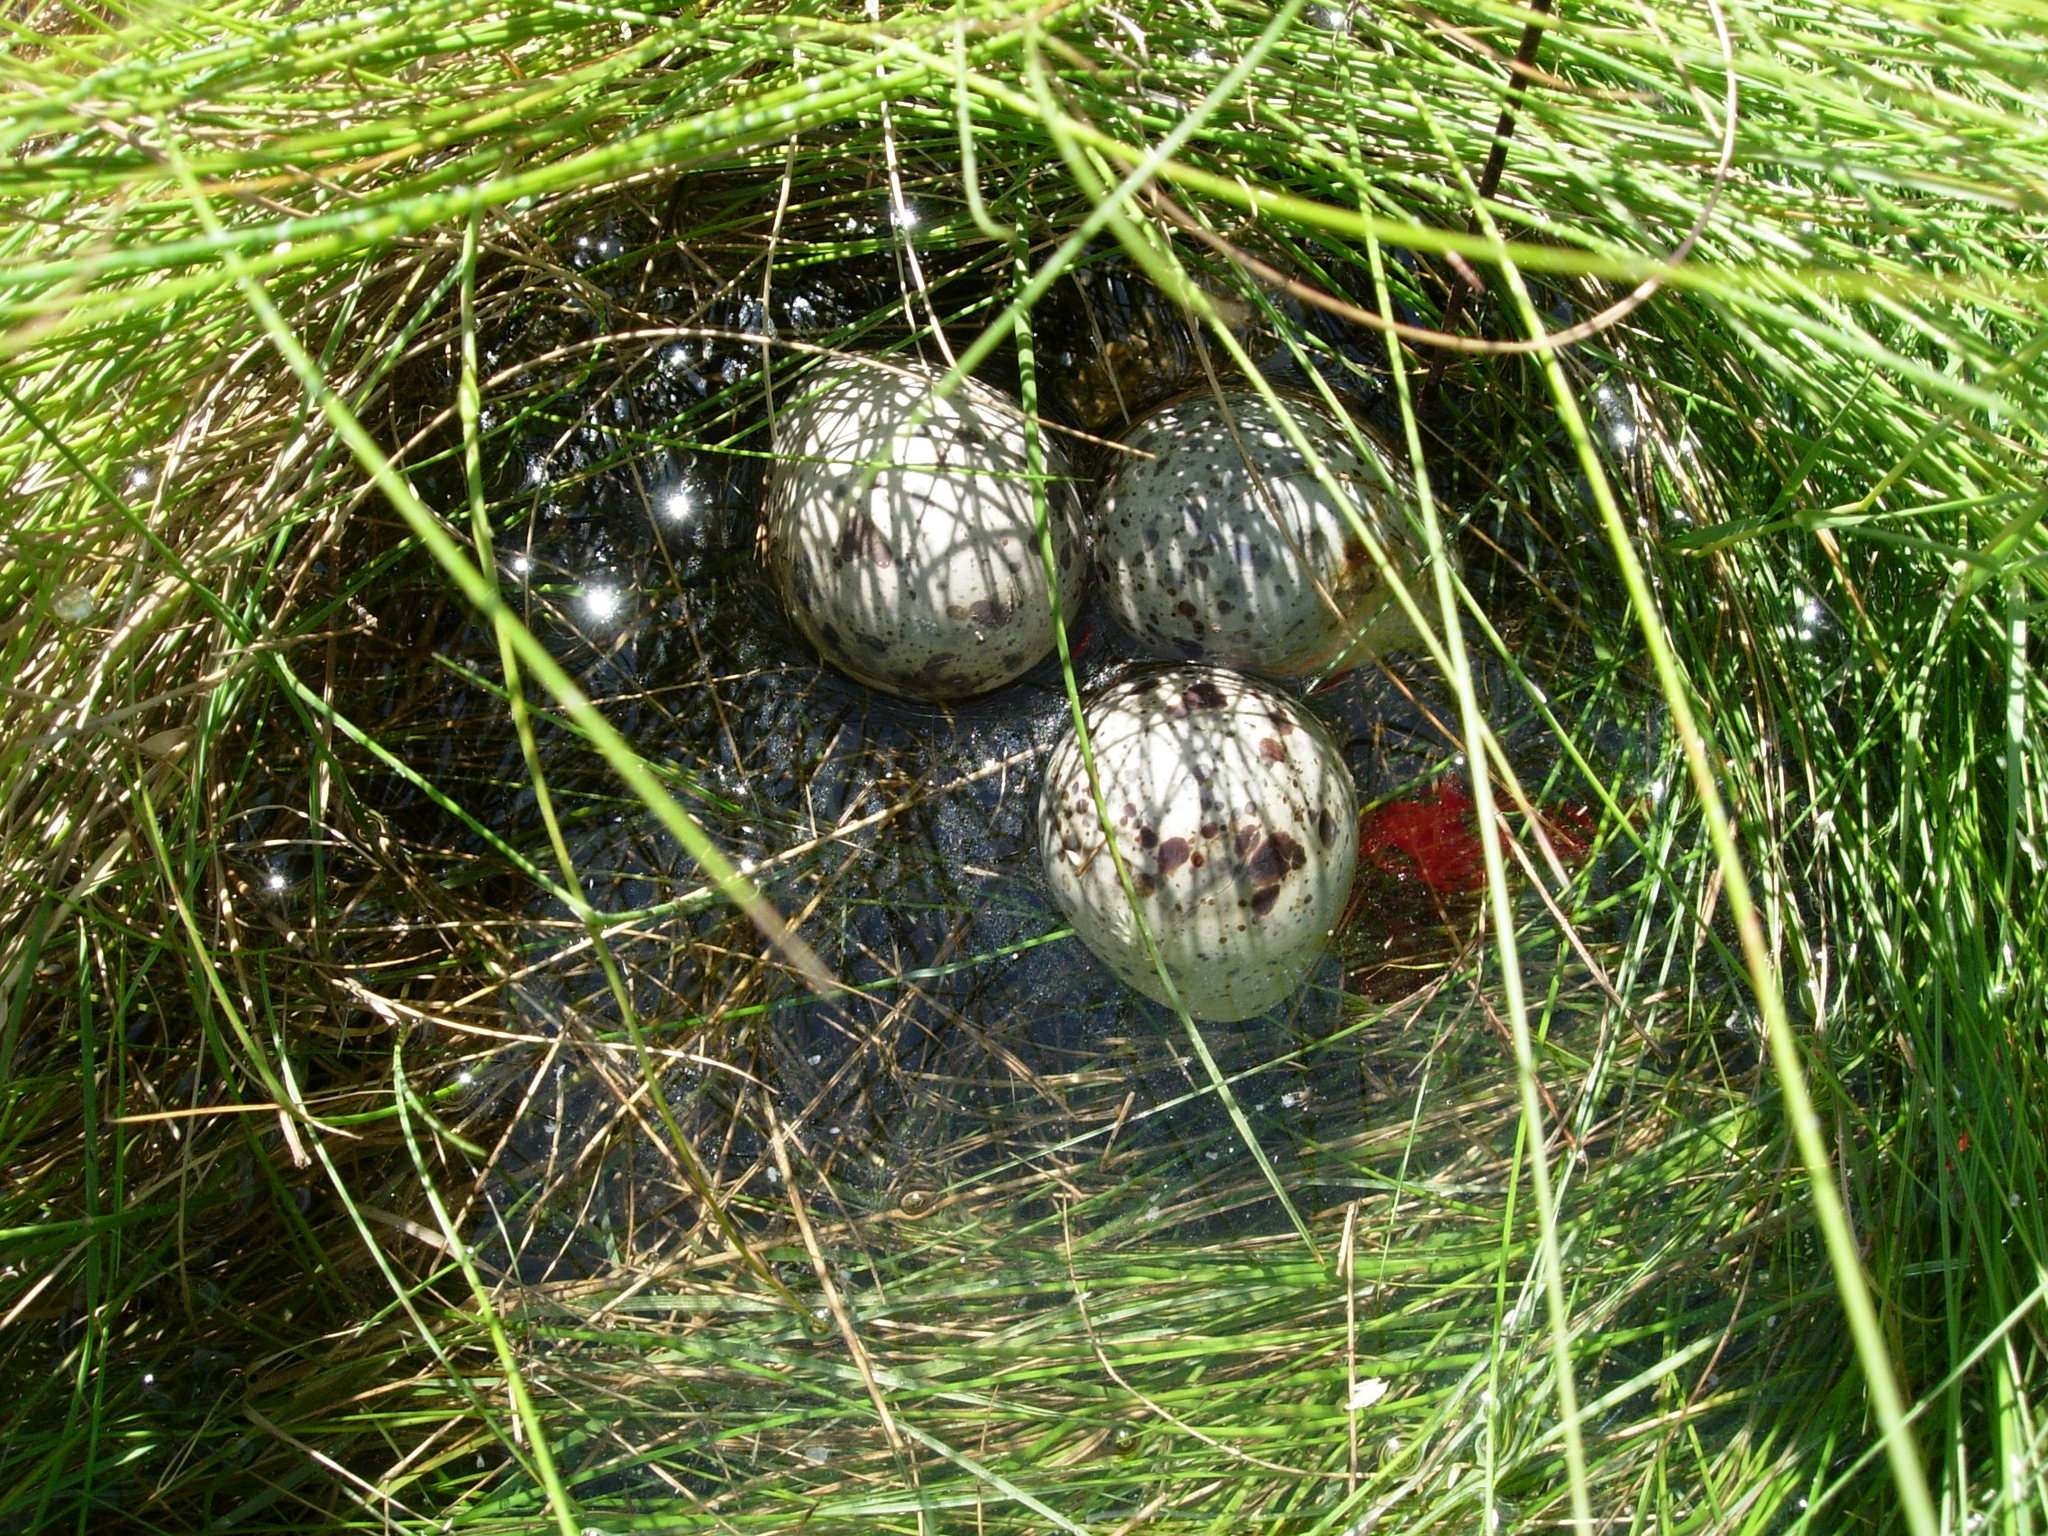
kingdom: Animalia
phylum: Chordata
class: Aves
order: Charadriiformes
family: Scolopacidae
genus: Tringa
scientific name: Tringa semipalmata
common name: Willet
